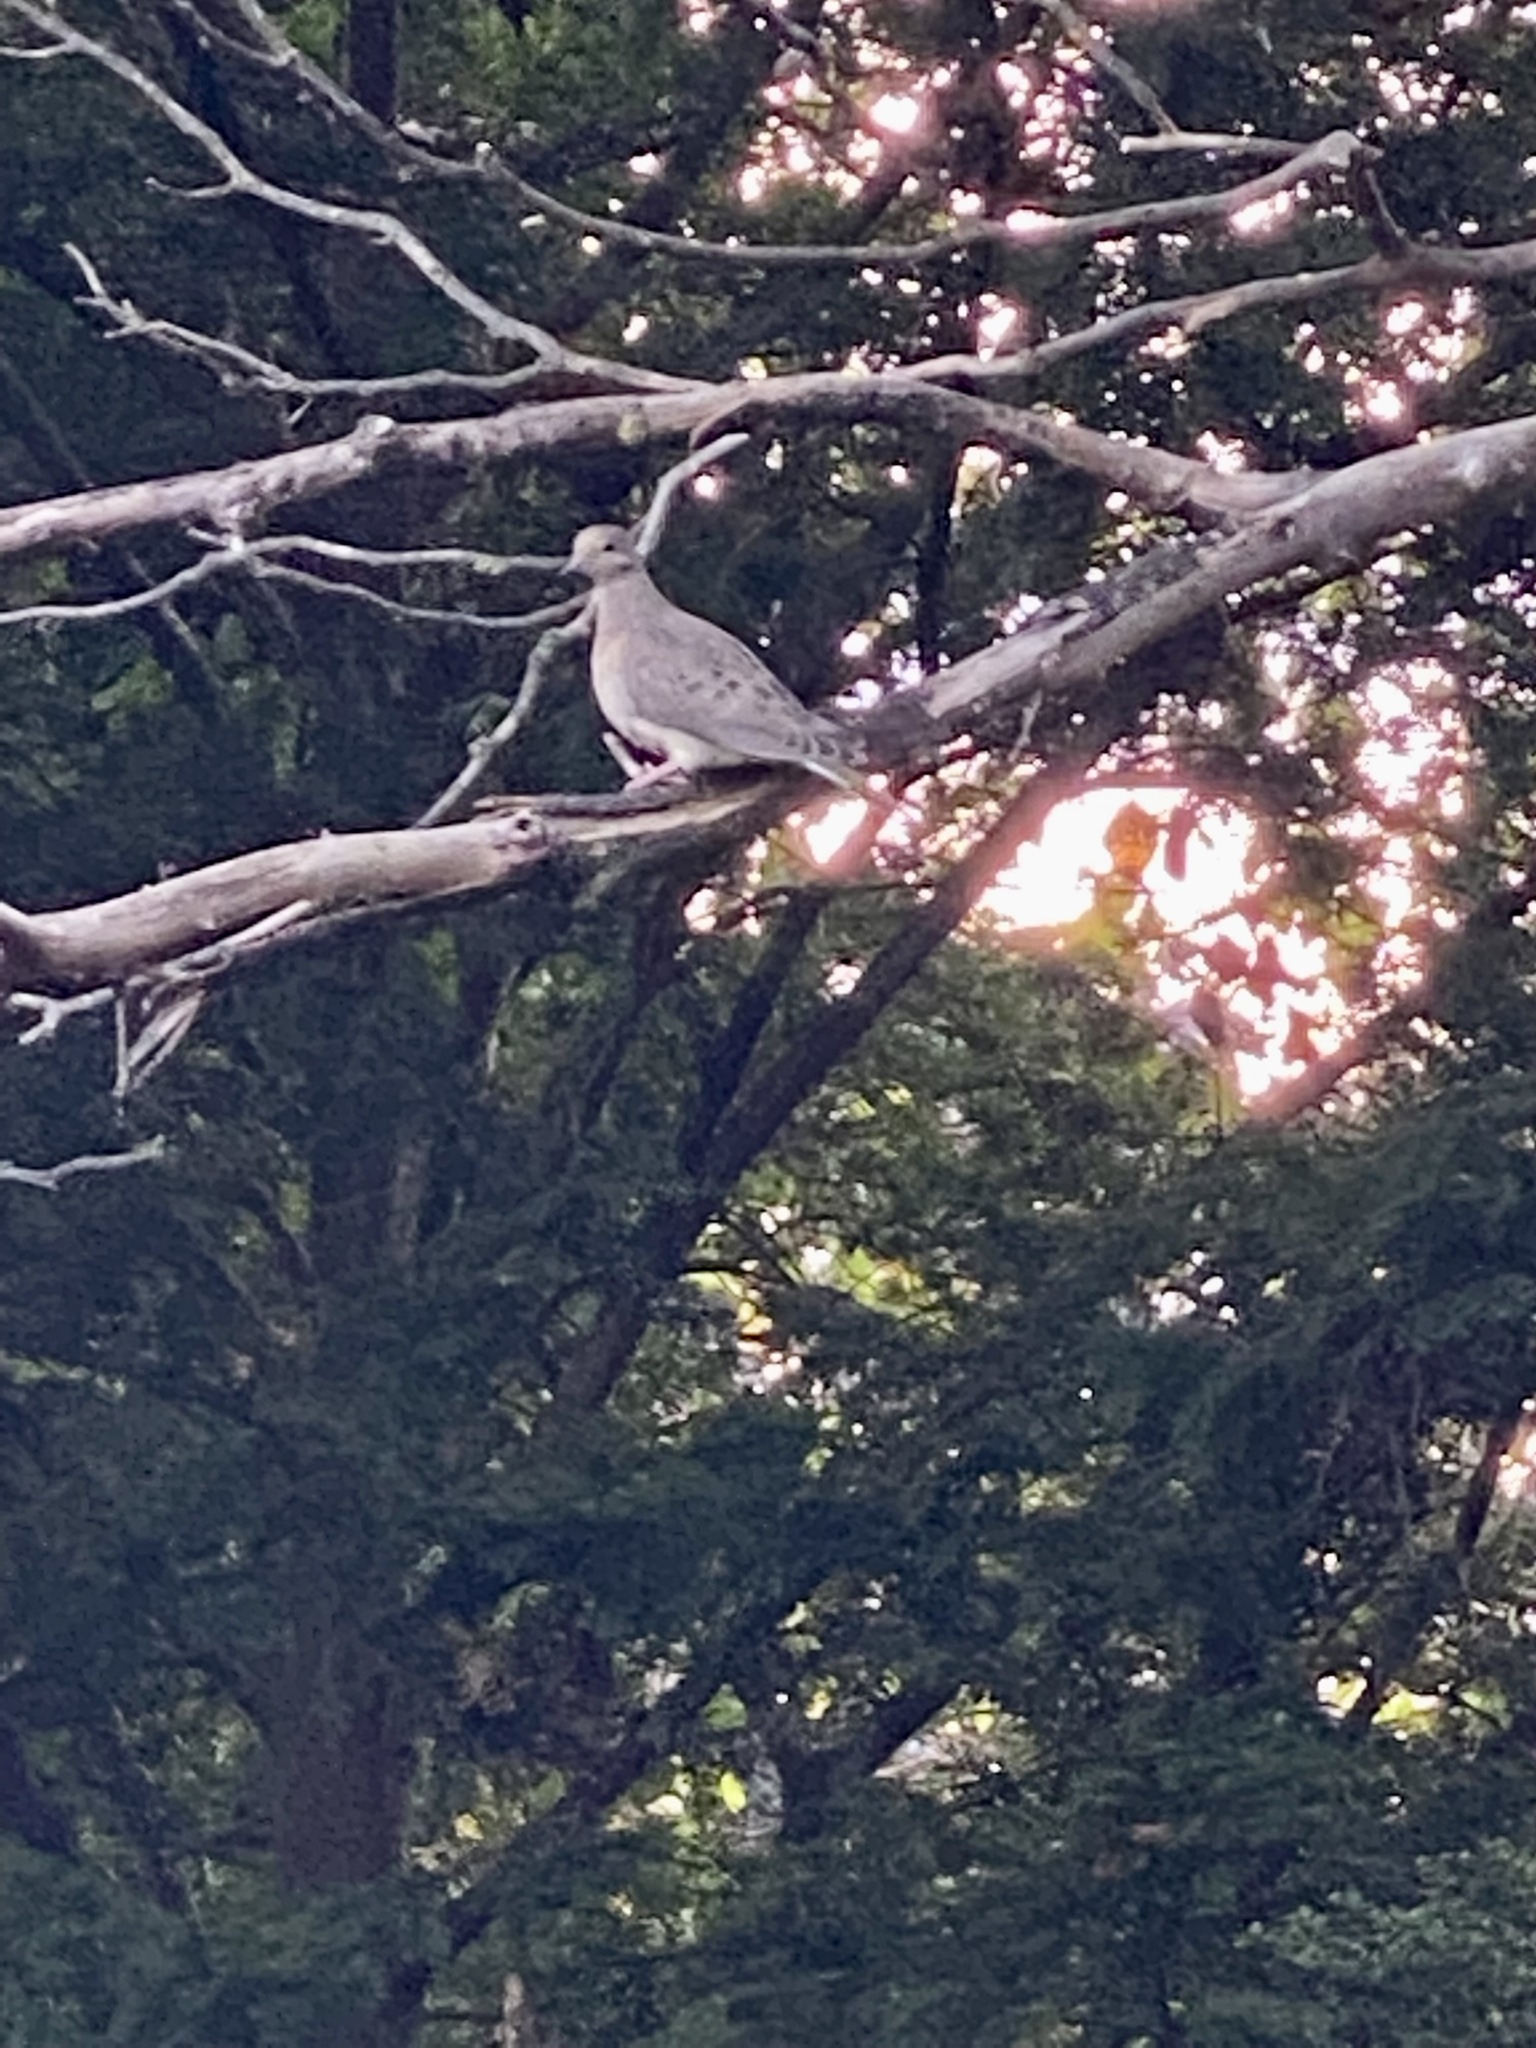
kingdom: Animalia
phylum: Chordata
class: Aves
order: Columbiformes
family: Columbidae
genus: Zenaida
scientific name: Zenaida macroura
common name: Mourning dove
